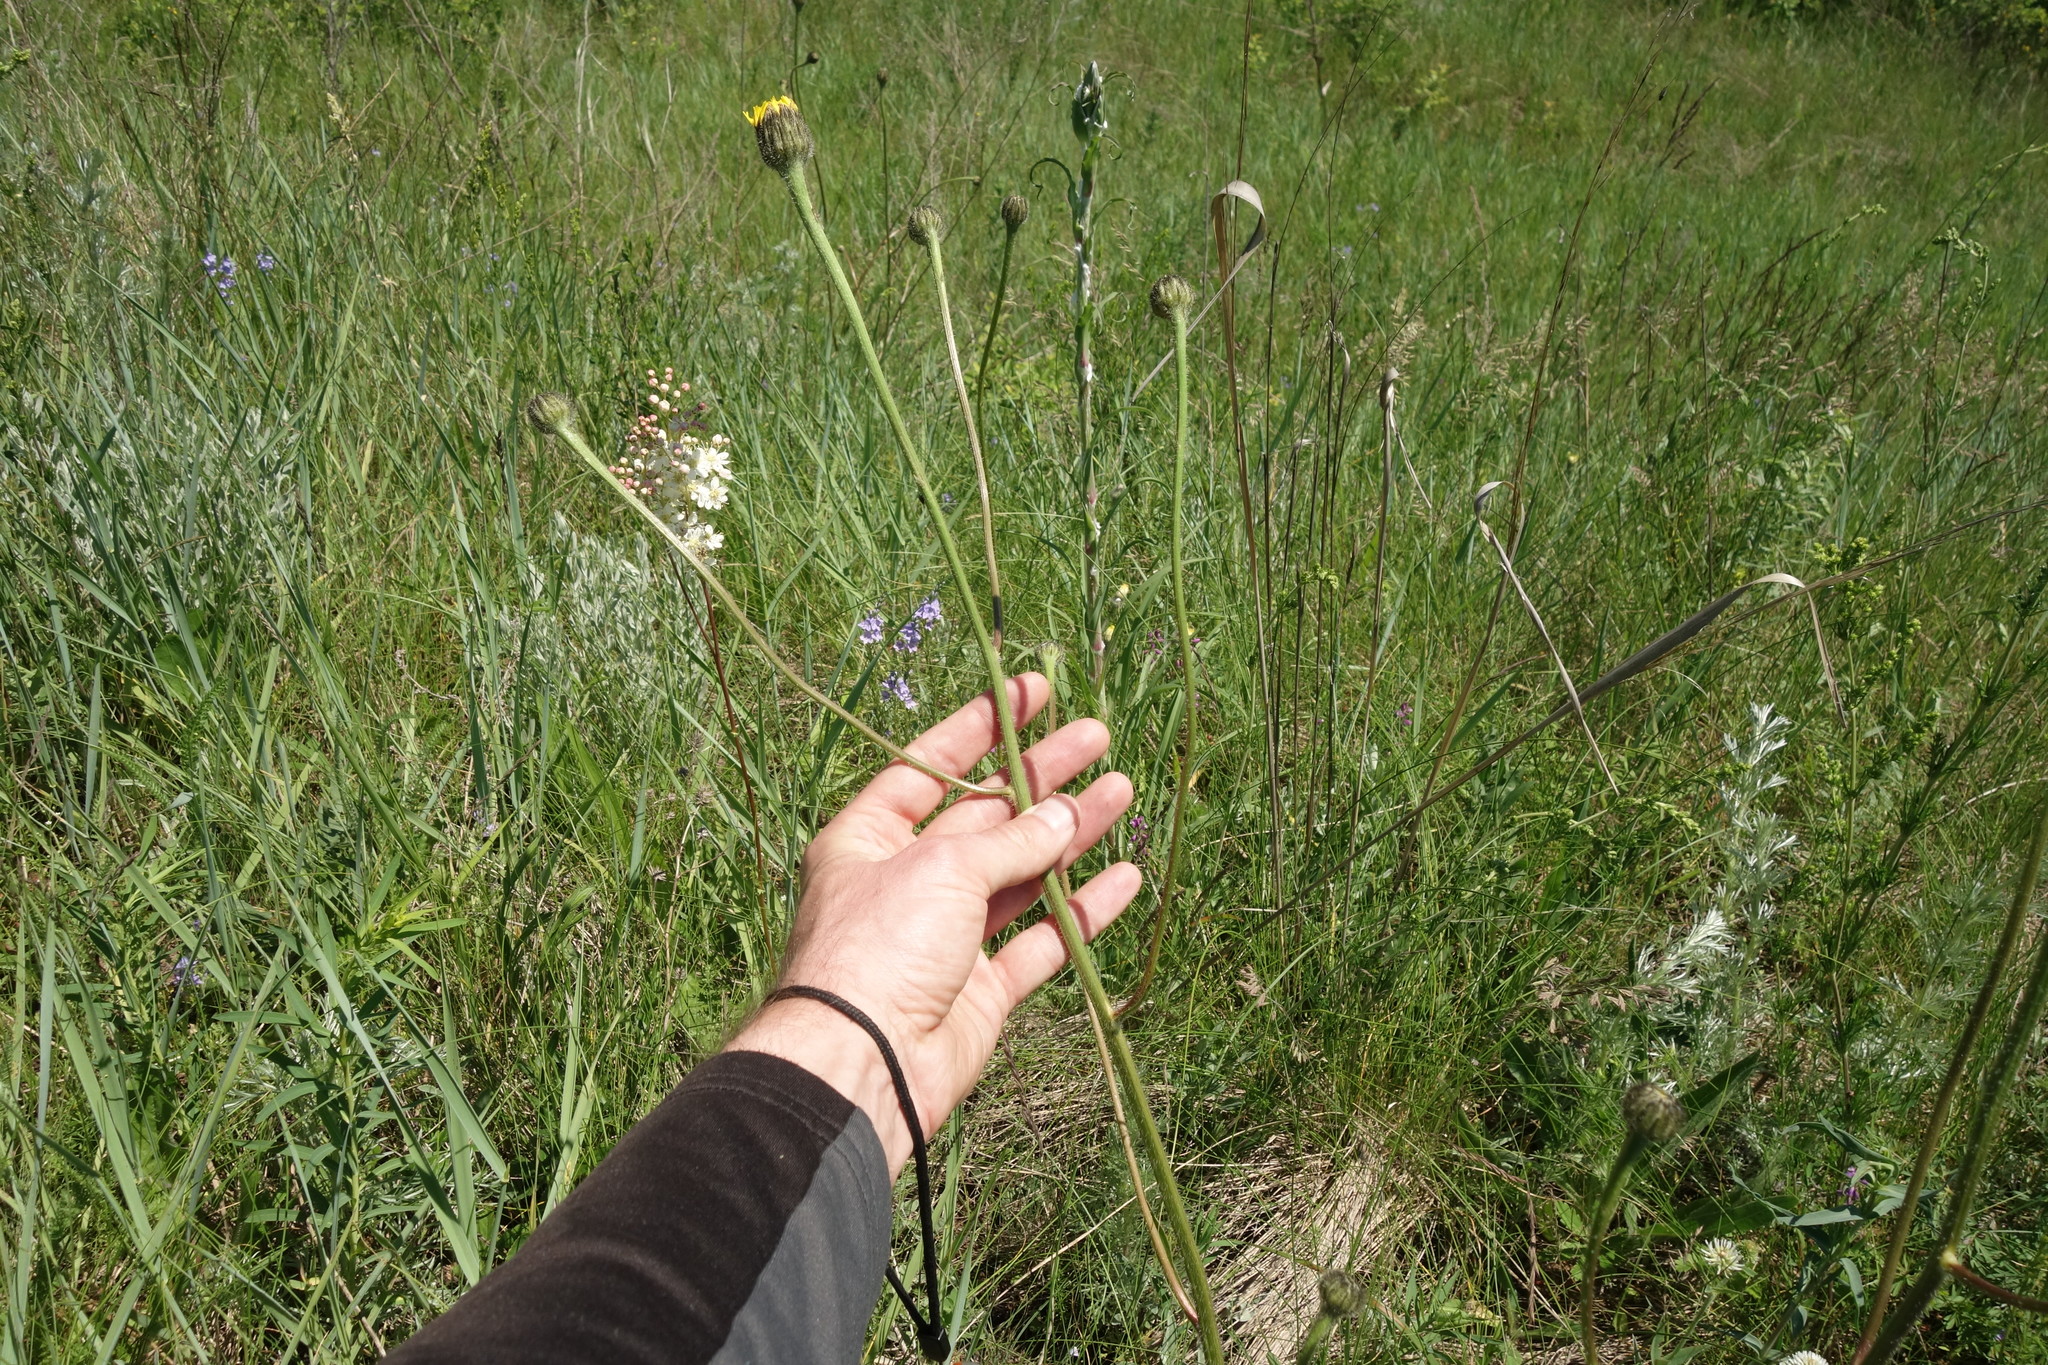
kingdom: Plantae
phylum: Tracheophyta
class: Magnoliopsida
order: Asterales
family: Asteraceae
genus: Trommsdorffia
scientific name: Trommsdorffia maculata
